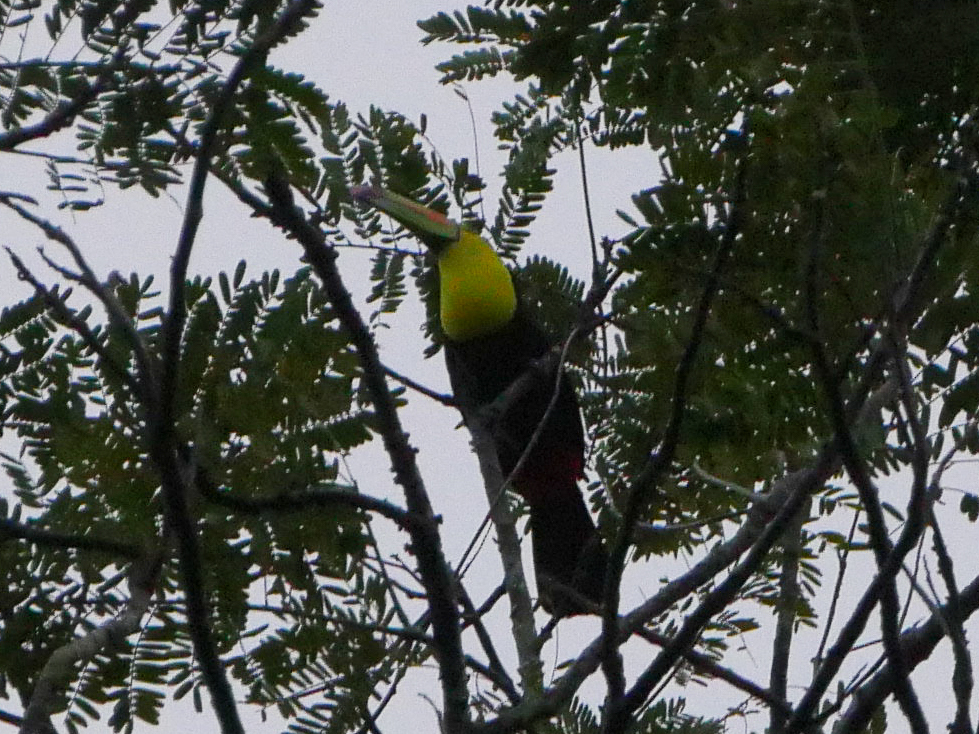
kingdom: Animalia
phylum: Chordata
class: Aves
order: Piciformes
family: Ramphastidae
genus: Ramphastos
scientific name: Ramphastos sulfuratus
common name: Keel-billed toucan
